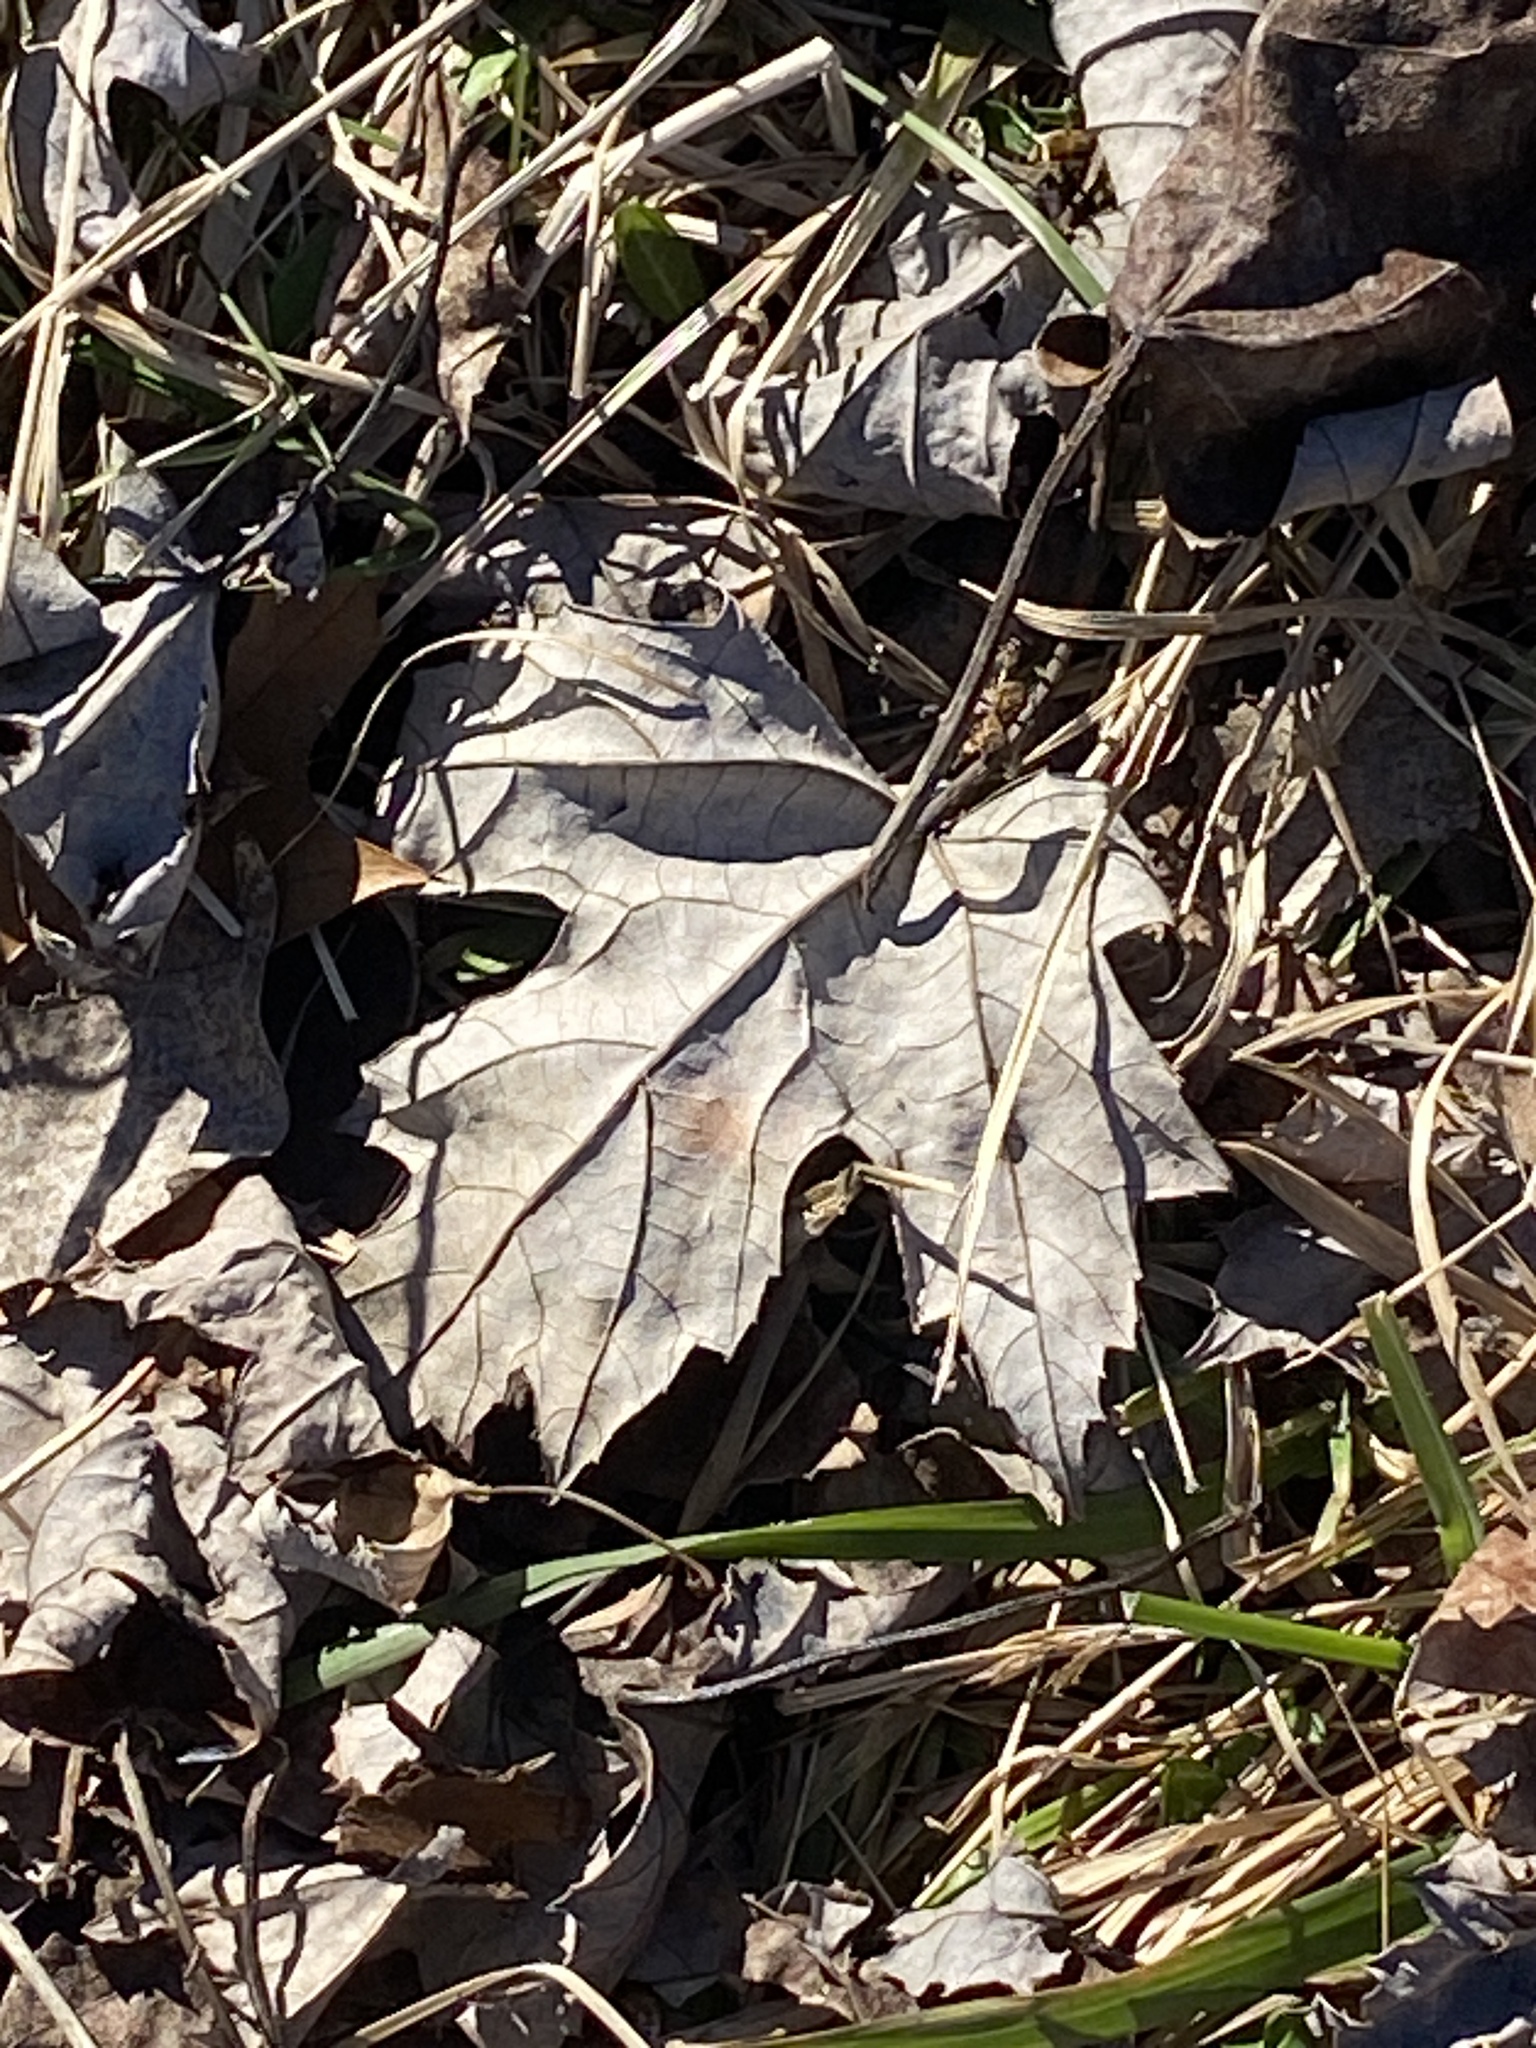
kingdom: Plantae
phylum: Tracheophyta
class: Magnoliopsida
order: Sapindales
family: Sapindaceae
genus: Acer
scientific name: Acer saccharinum
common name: Silver maple
